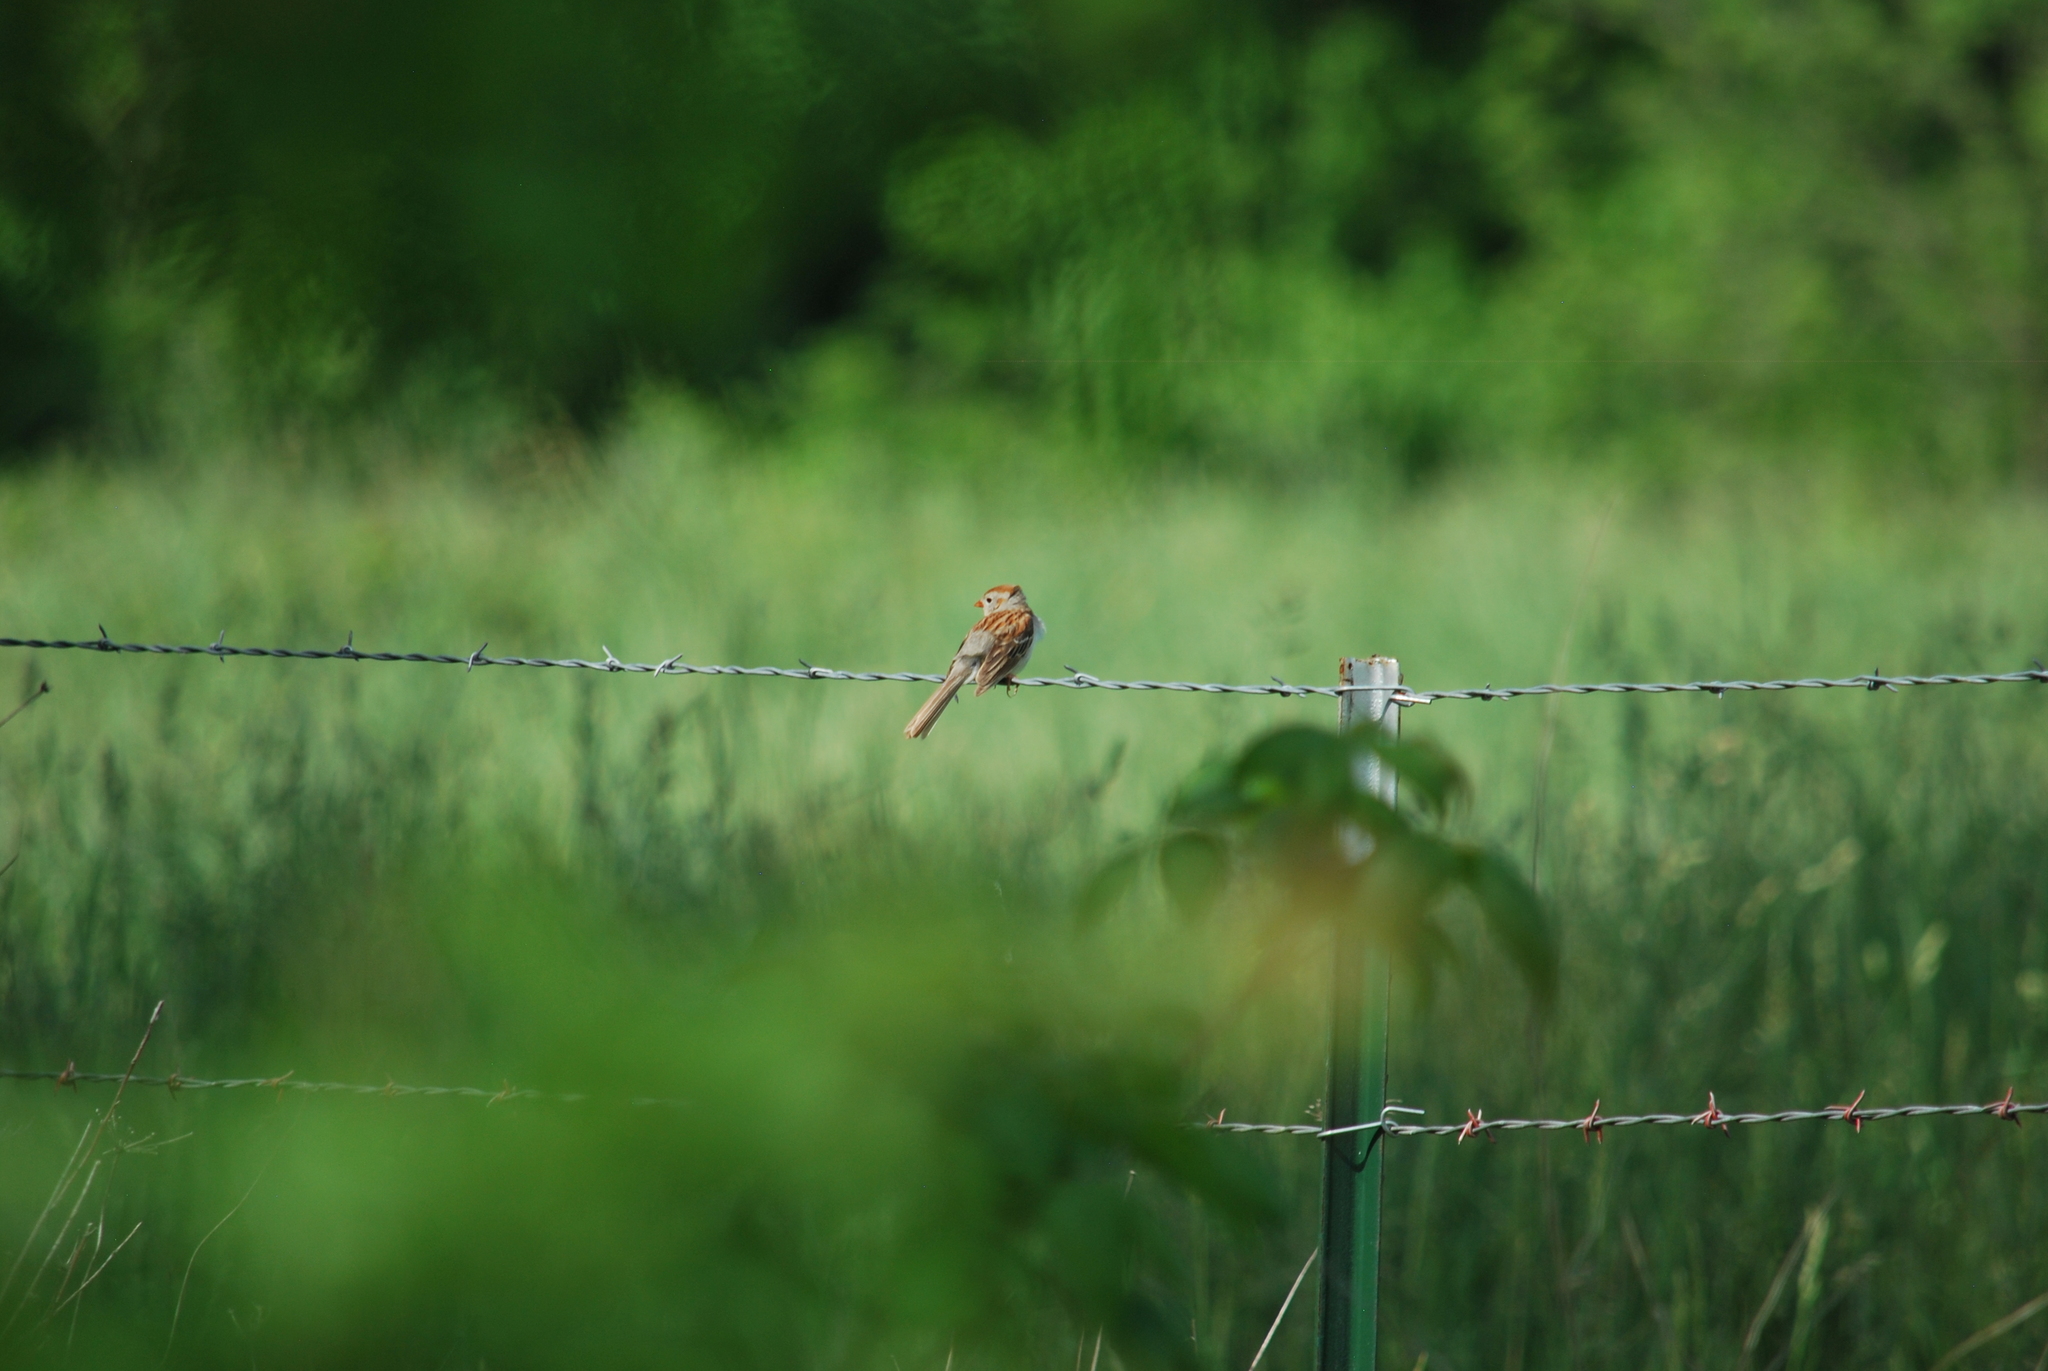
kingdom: Animalia
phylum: Chordata
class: Aves
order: Passeriformes
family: Passerellidae
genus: Spizella
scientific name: Spizella pusilla
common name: Field sparrow
